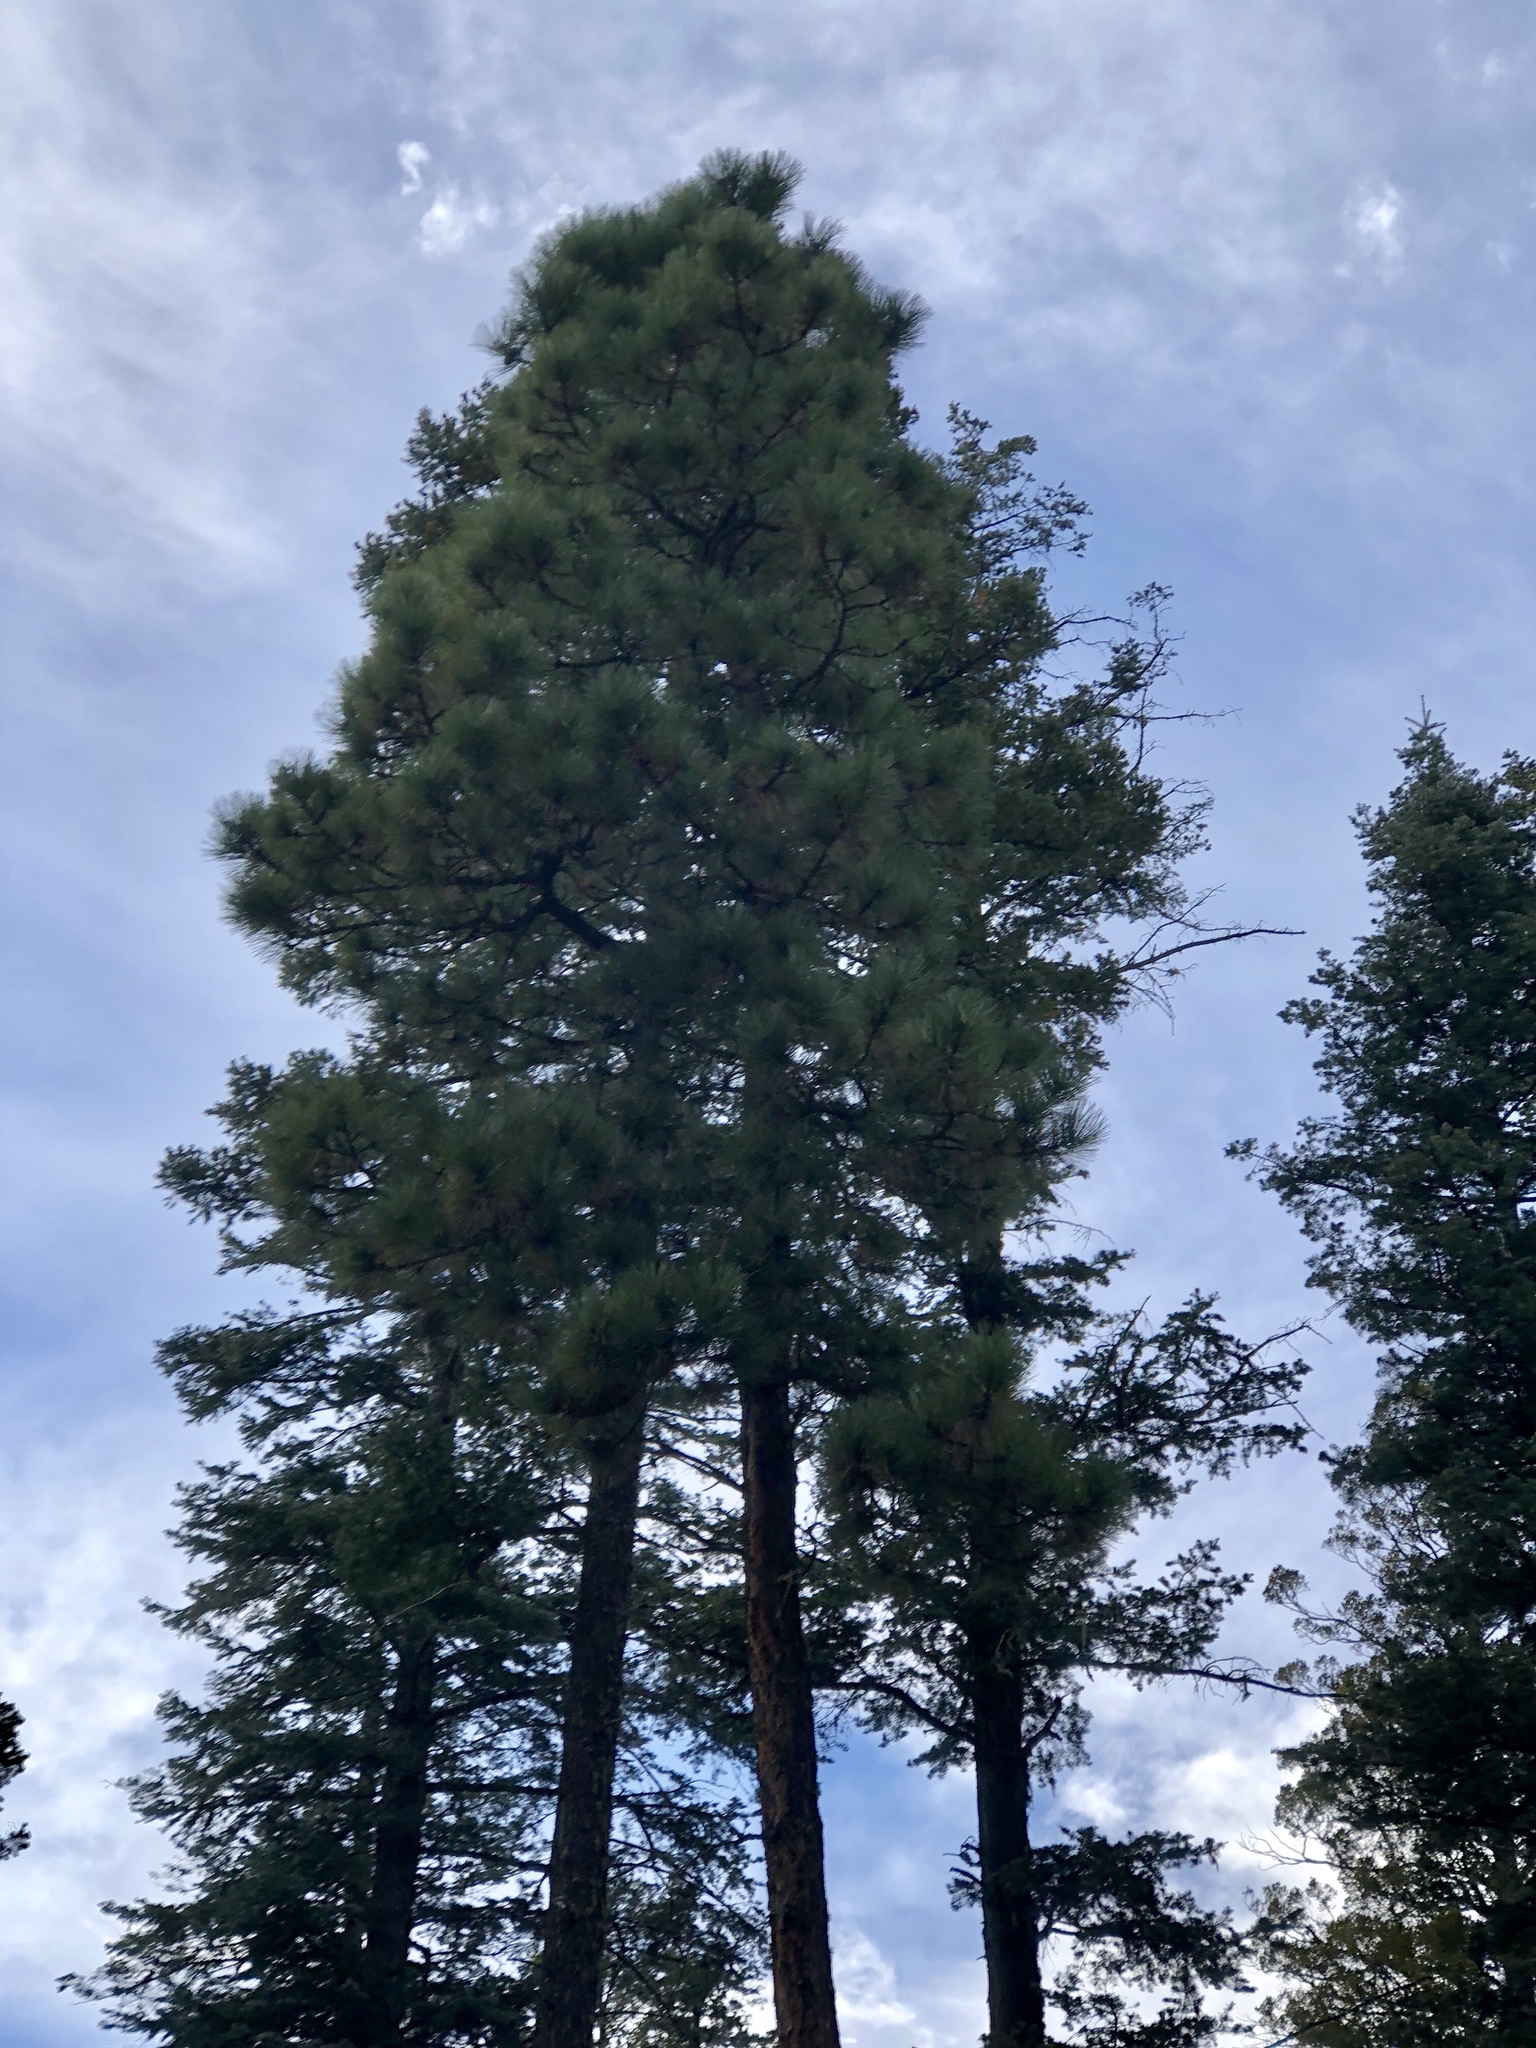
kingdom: Plantae
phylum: Tracheophyta
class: Pinopsida
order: Pinales
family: Pinaceae
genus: Pinus
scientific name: Pinus ponderosa
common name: Western yellow-pine
